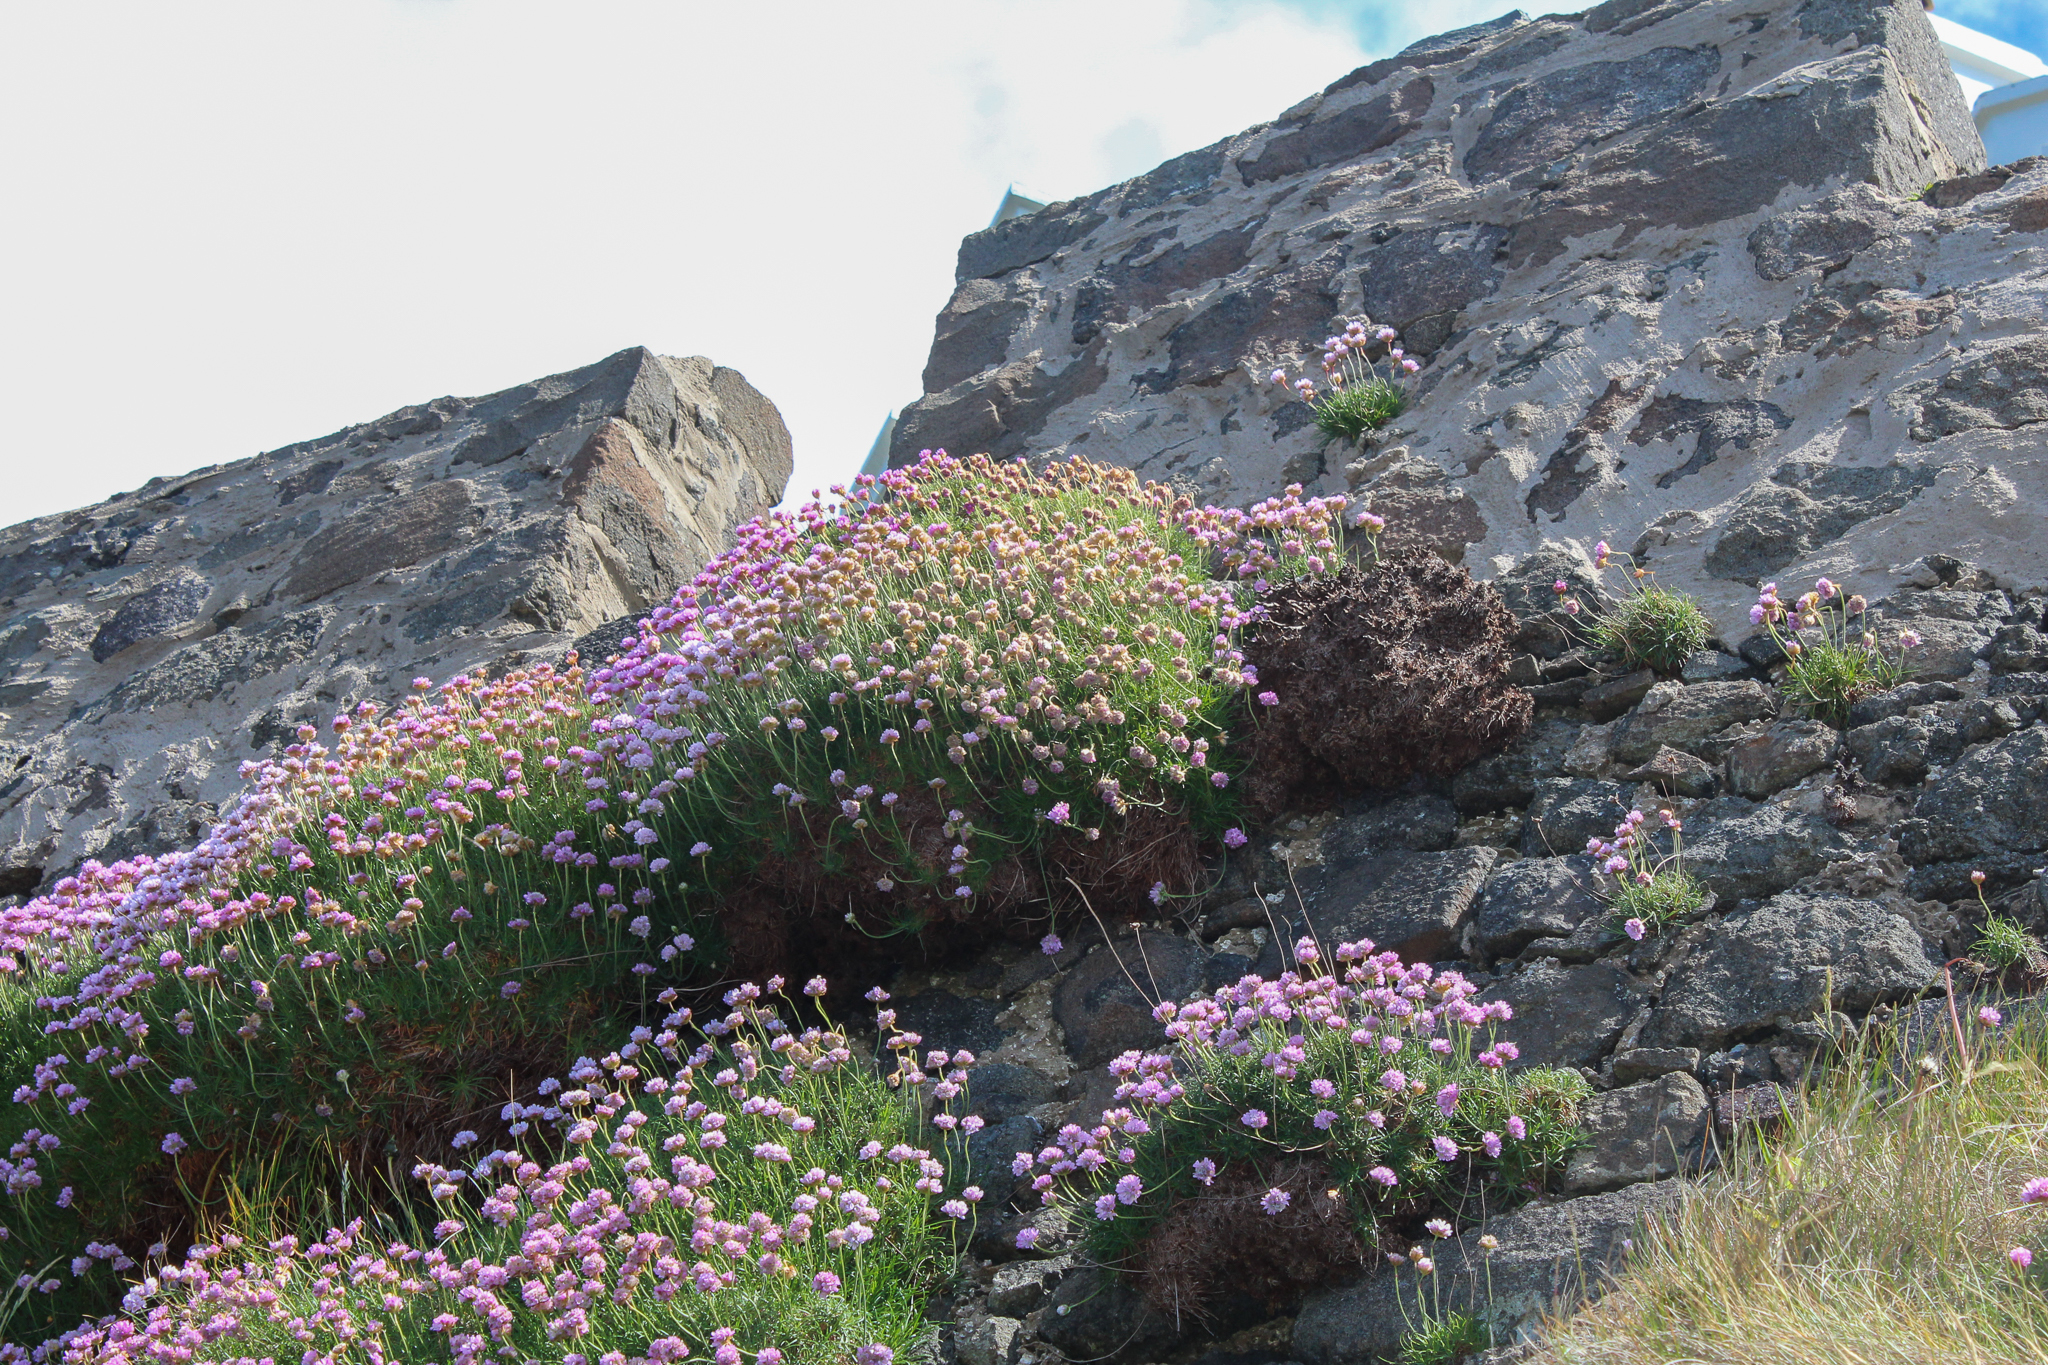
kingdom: Plantae
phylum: Tracheophyta
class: Magnoliopsida
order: Caryophyllales
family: Plumbaginaceae
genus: Armeria
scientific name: Armeria maritima
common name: Thrift
